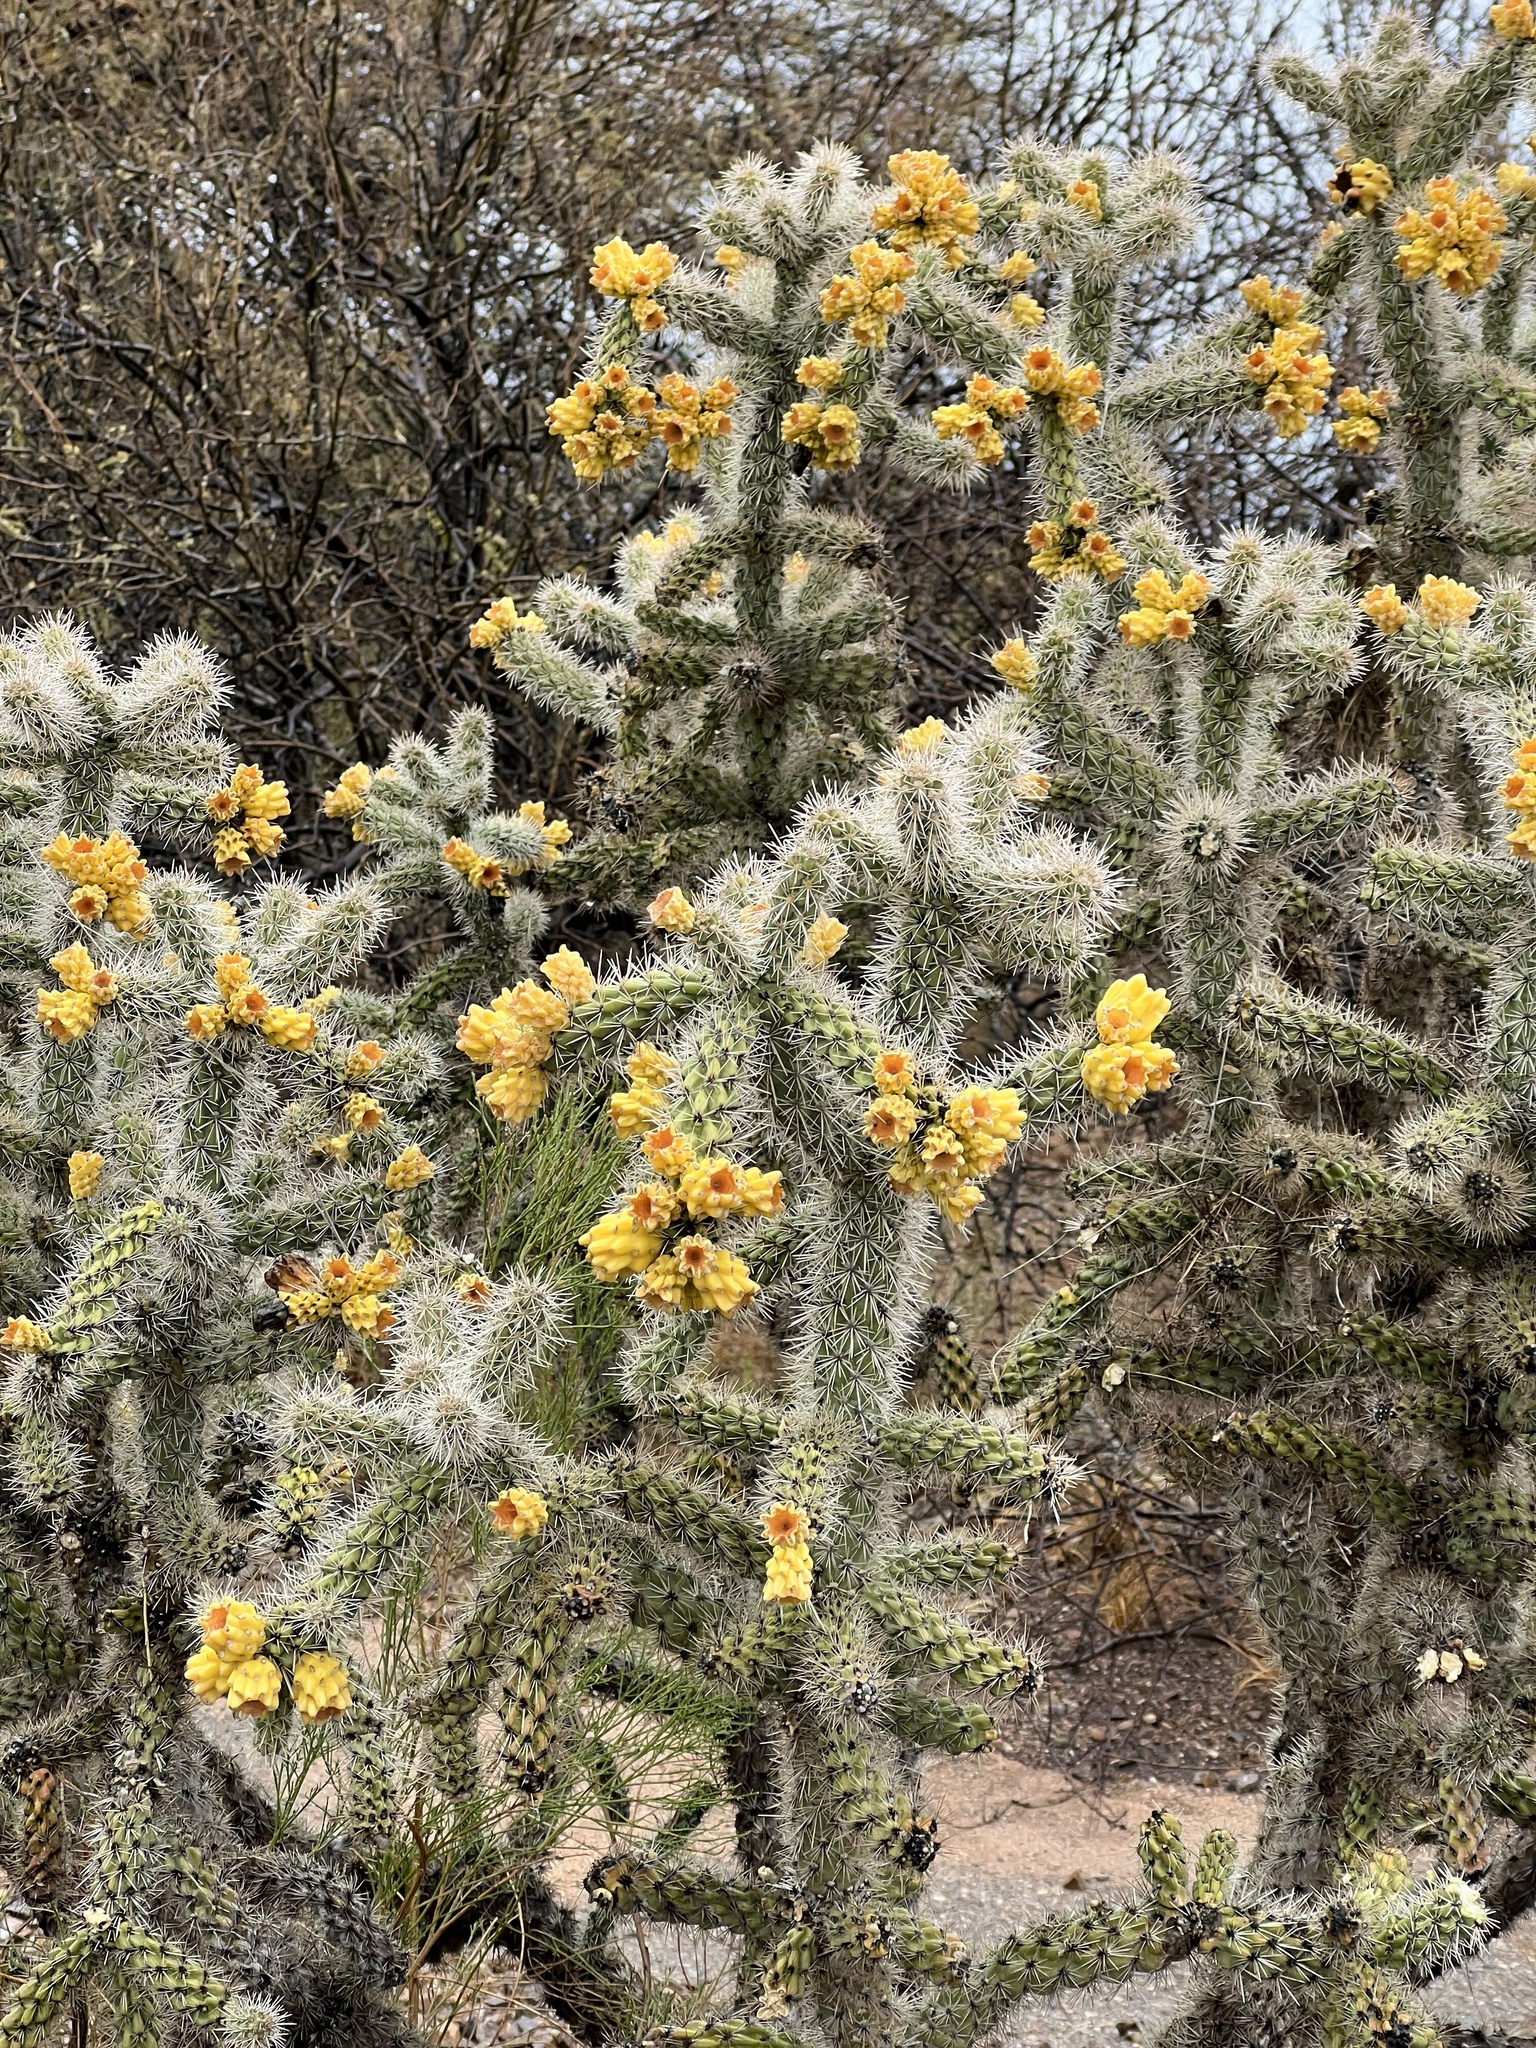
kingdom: Plantae
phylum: Tracheophyta
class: Magnoliopsida
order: Caryophyllales
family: Cactaceae
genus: Cylindropuntia
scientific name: Cylindropuntia imbricata
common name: Candelabrum cactus
